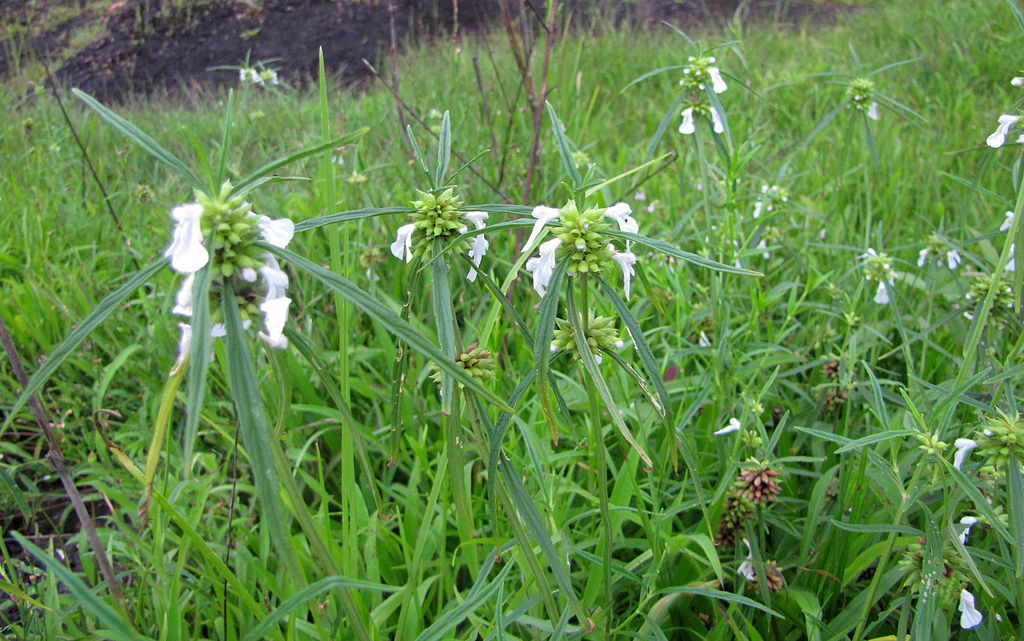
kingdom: Plantae
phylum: Tracheophyta
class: Magnoliopsida
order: Lamiales
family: Lamiaceae
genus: Leucas
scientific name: Leucas aspera
